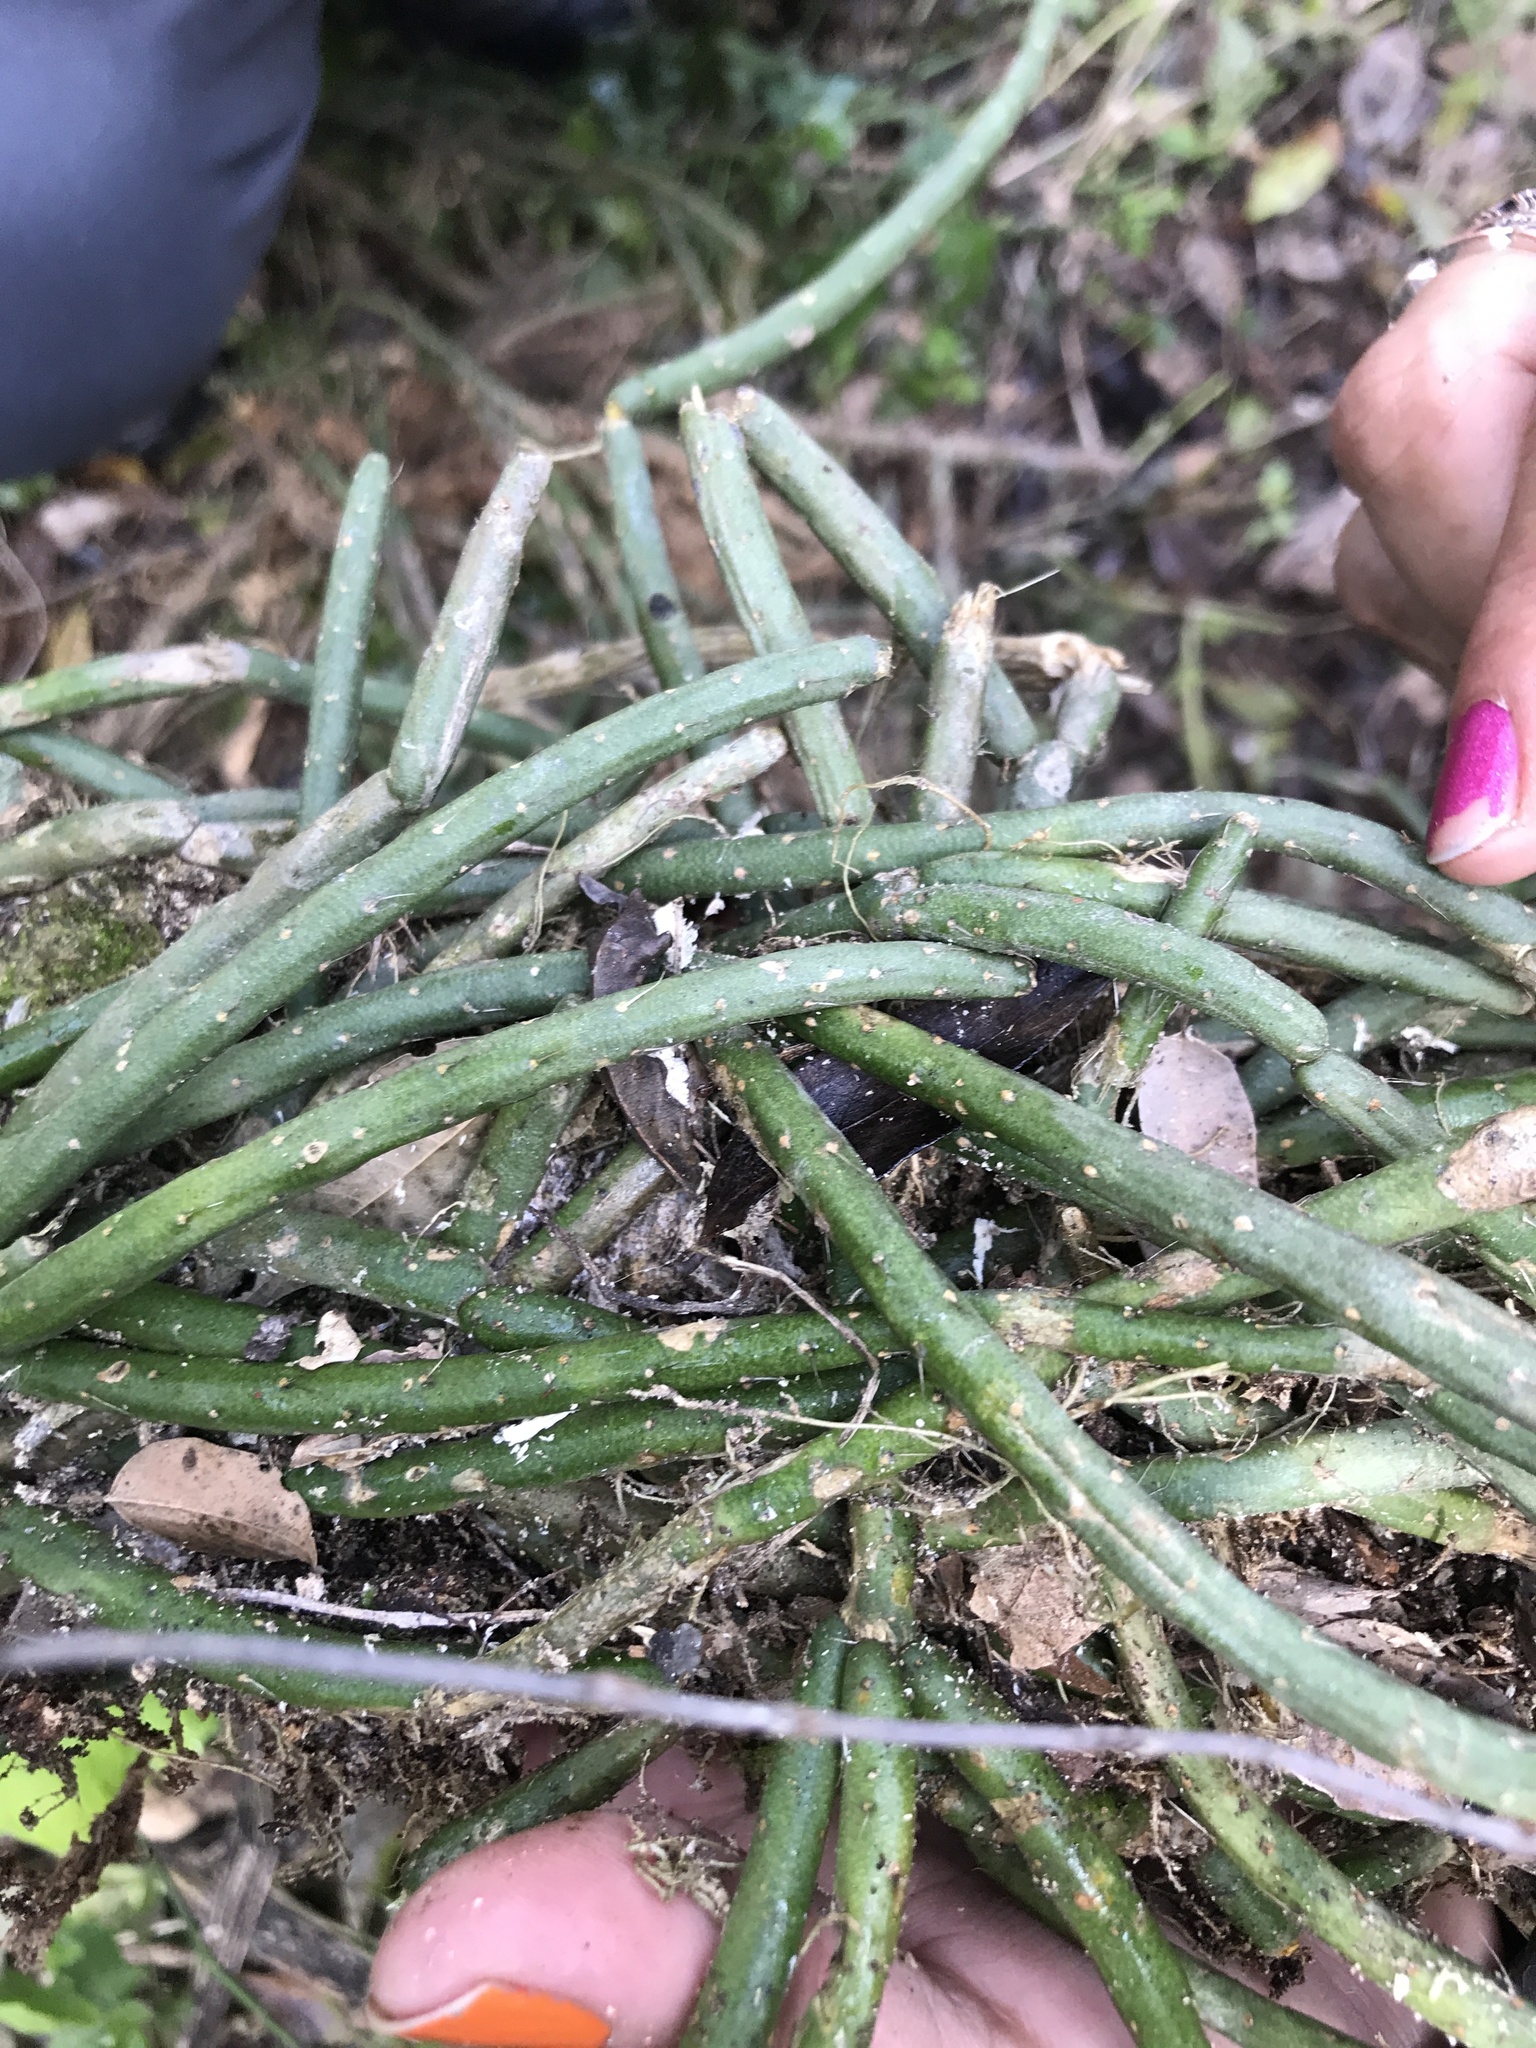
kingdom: Plantae
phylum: Tracheophyta
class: Magnoliopsida
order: Caryophyllales
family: Cactaceae
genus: Lepismium
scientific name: Lepismium lumbricoides
